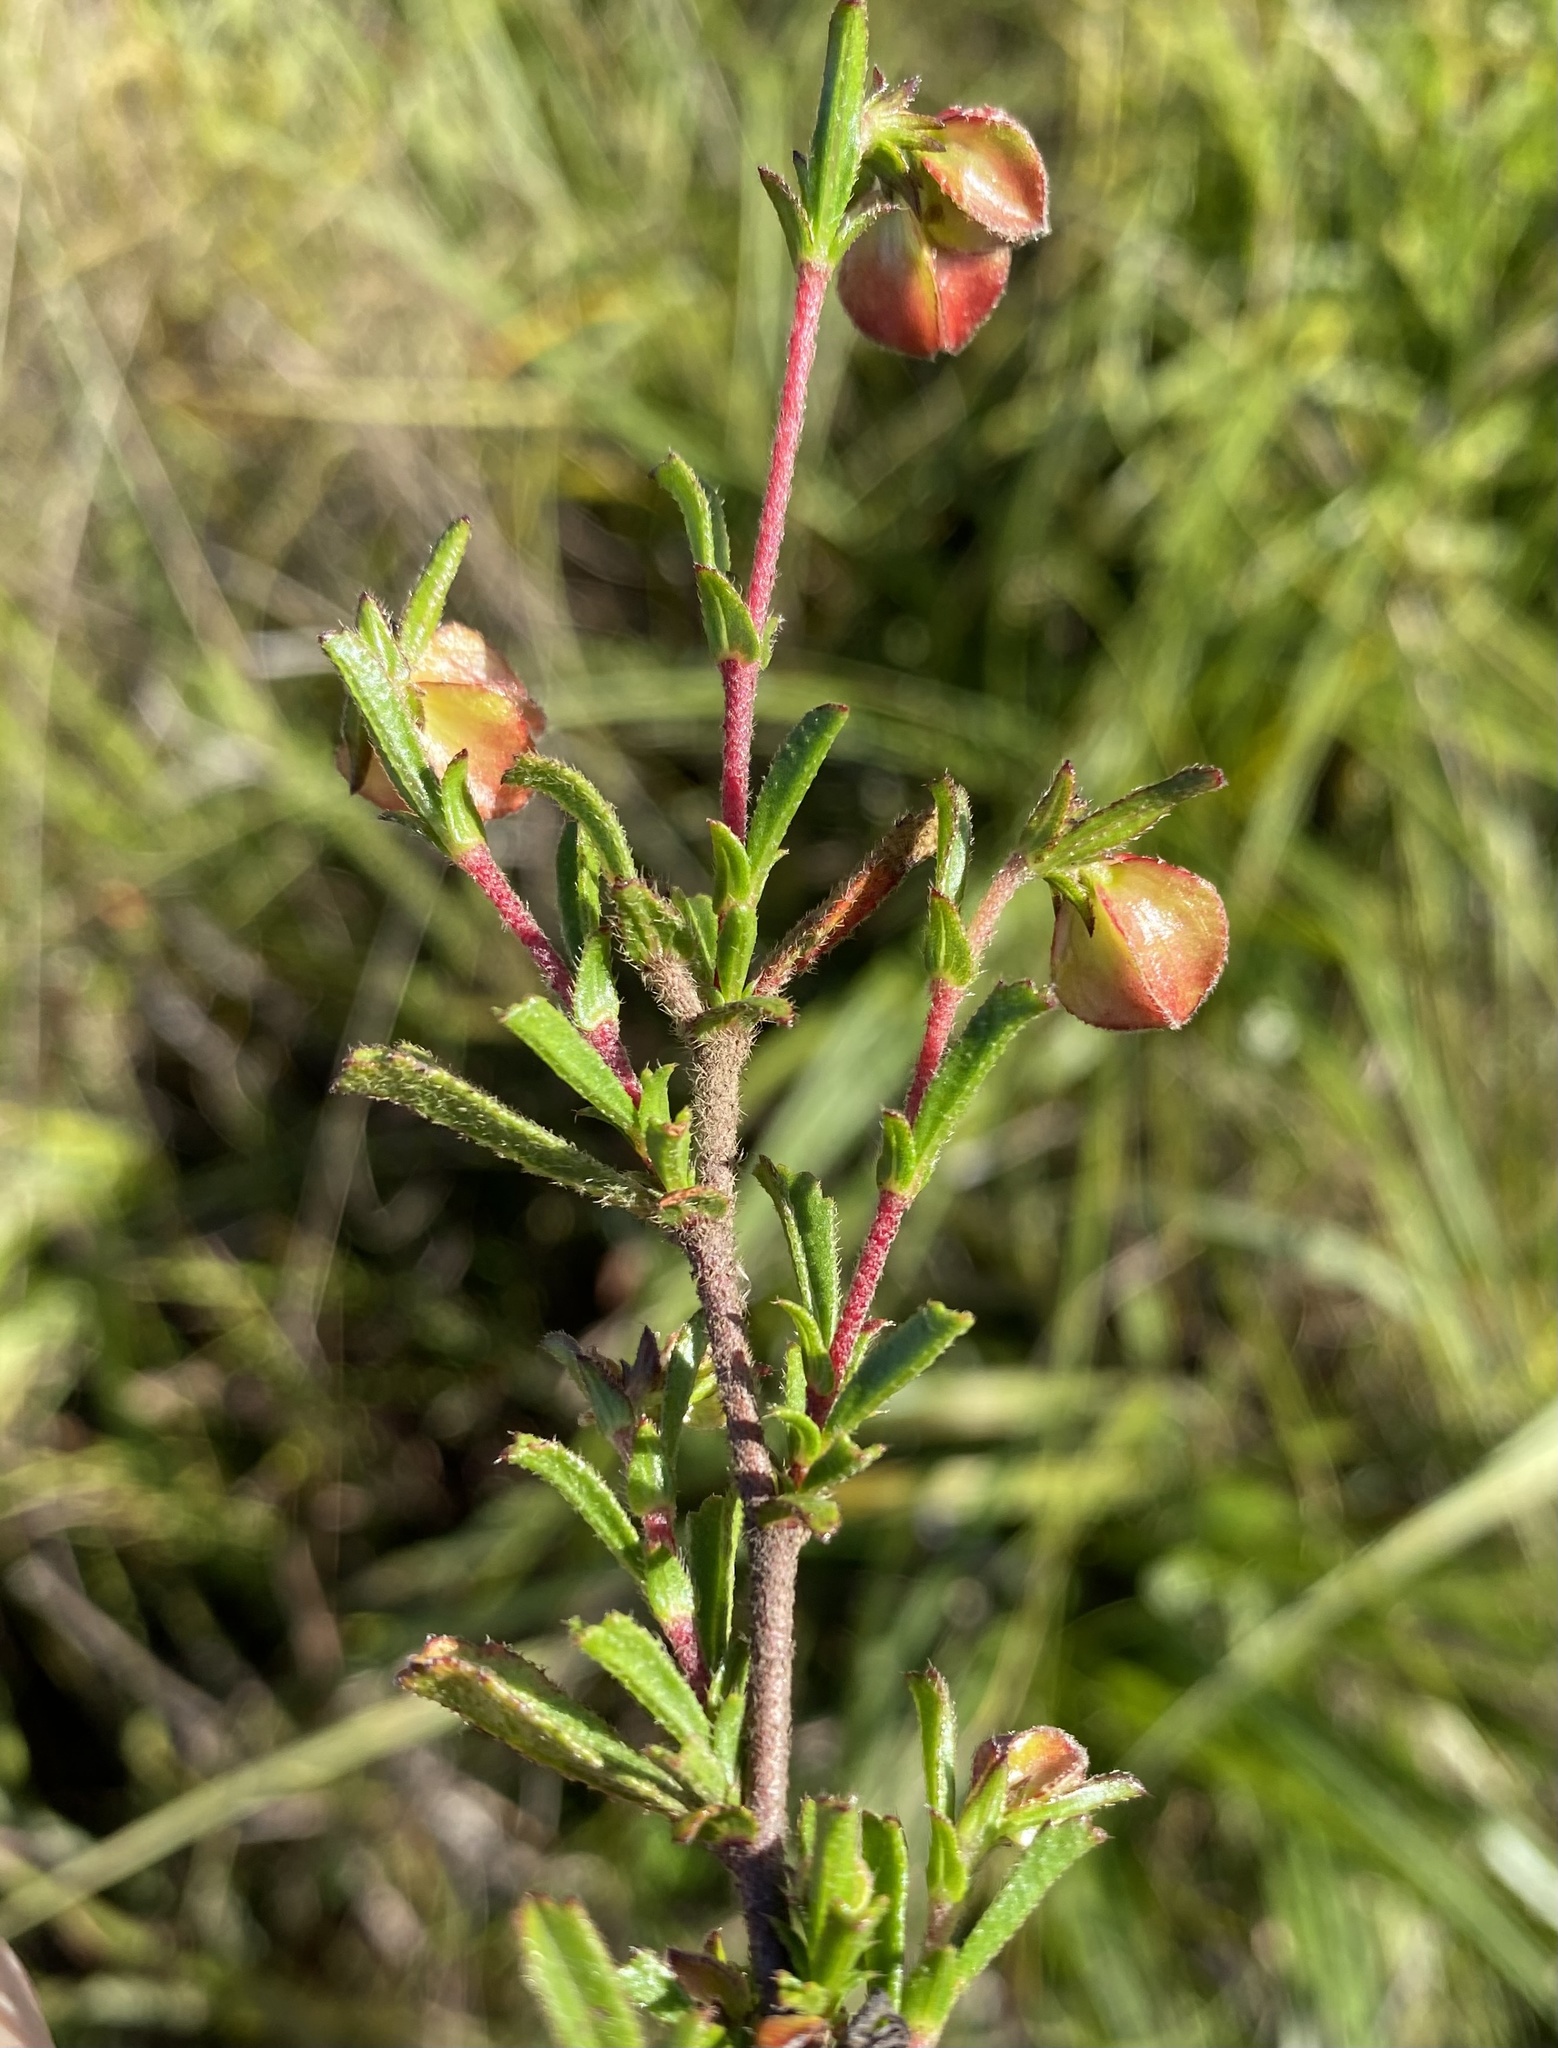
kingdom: Plantae
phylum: Tracheophyta
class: Magnoliopsida
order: Malvales
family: Malvaceae
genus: Hermannia
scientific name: Hermannia angularis
